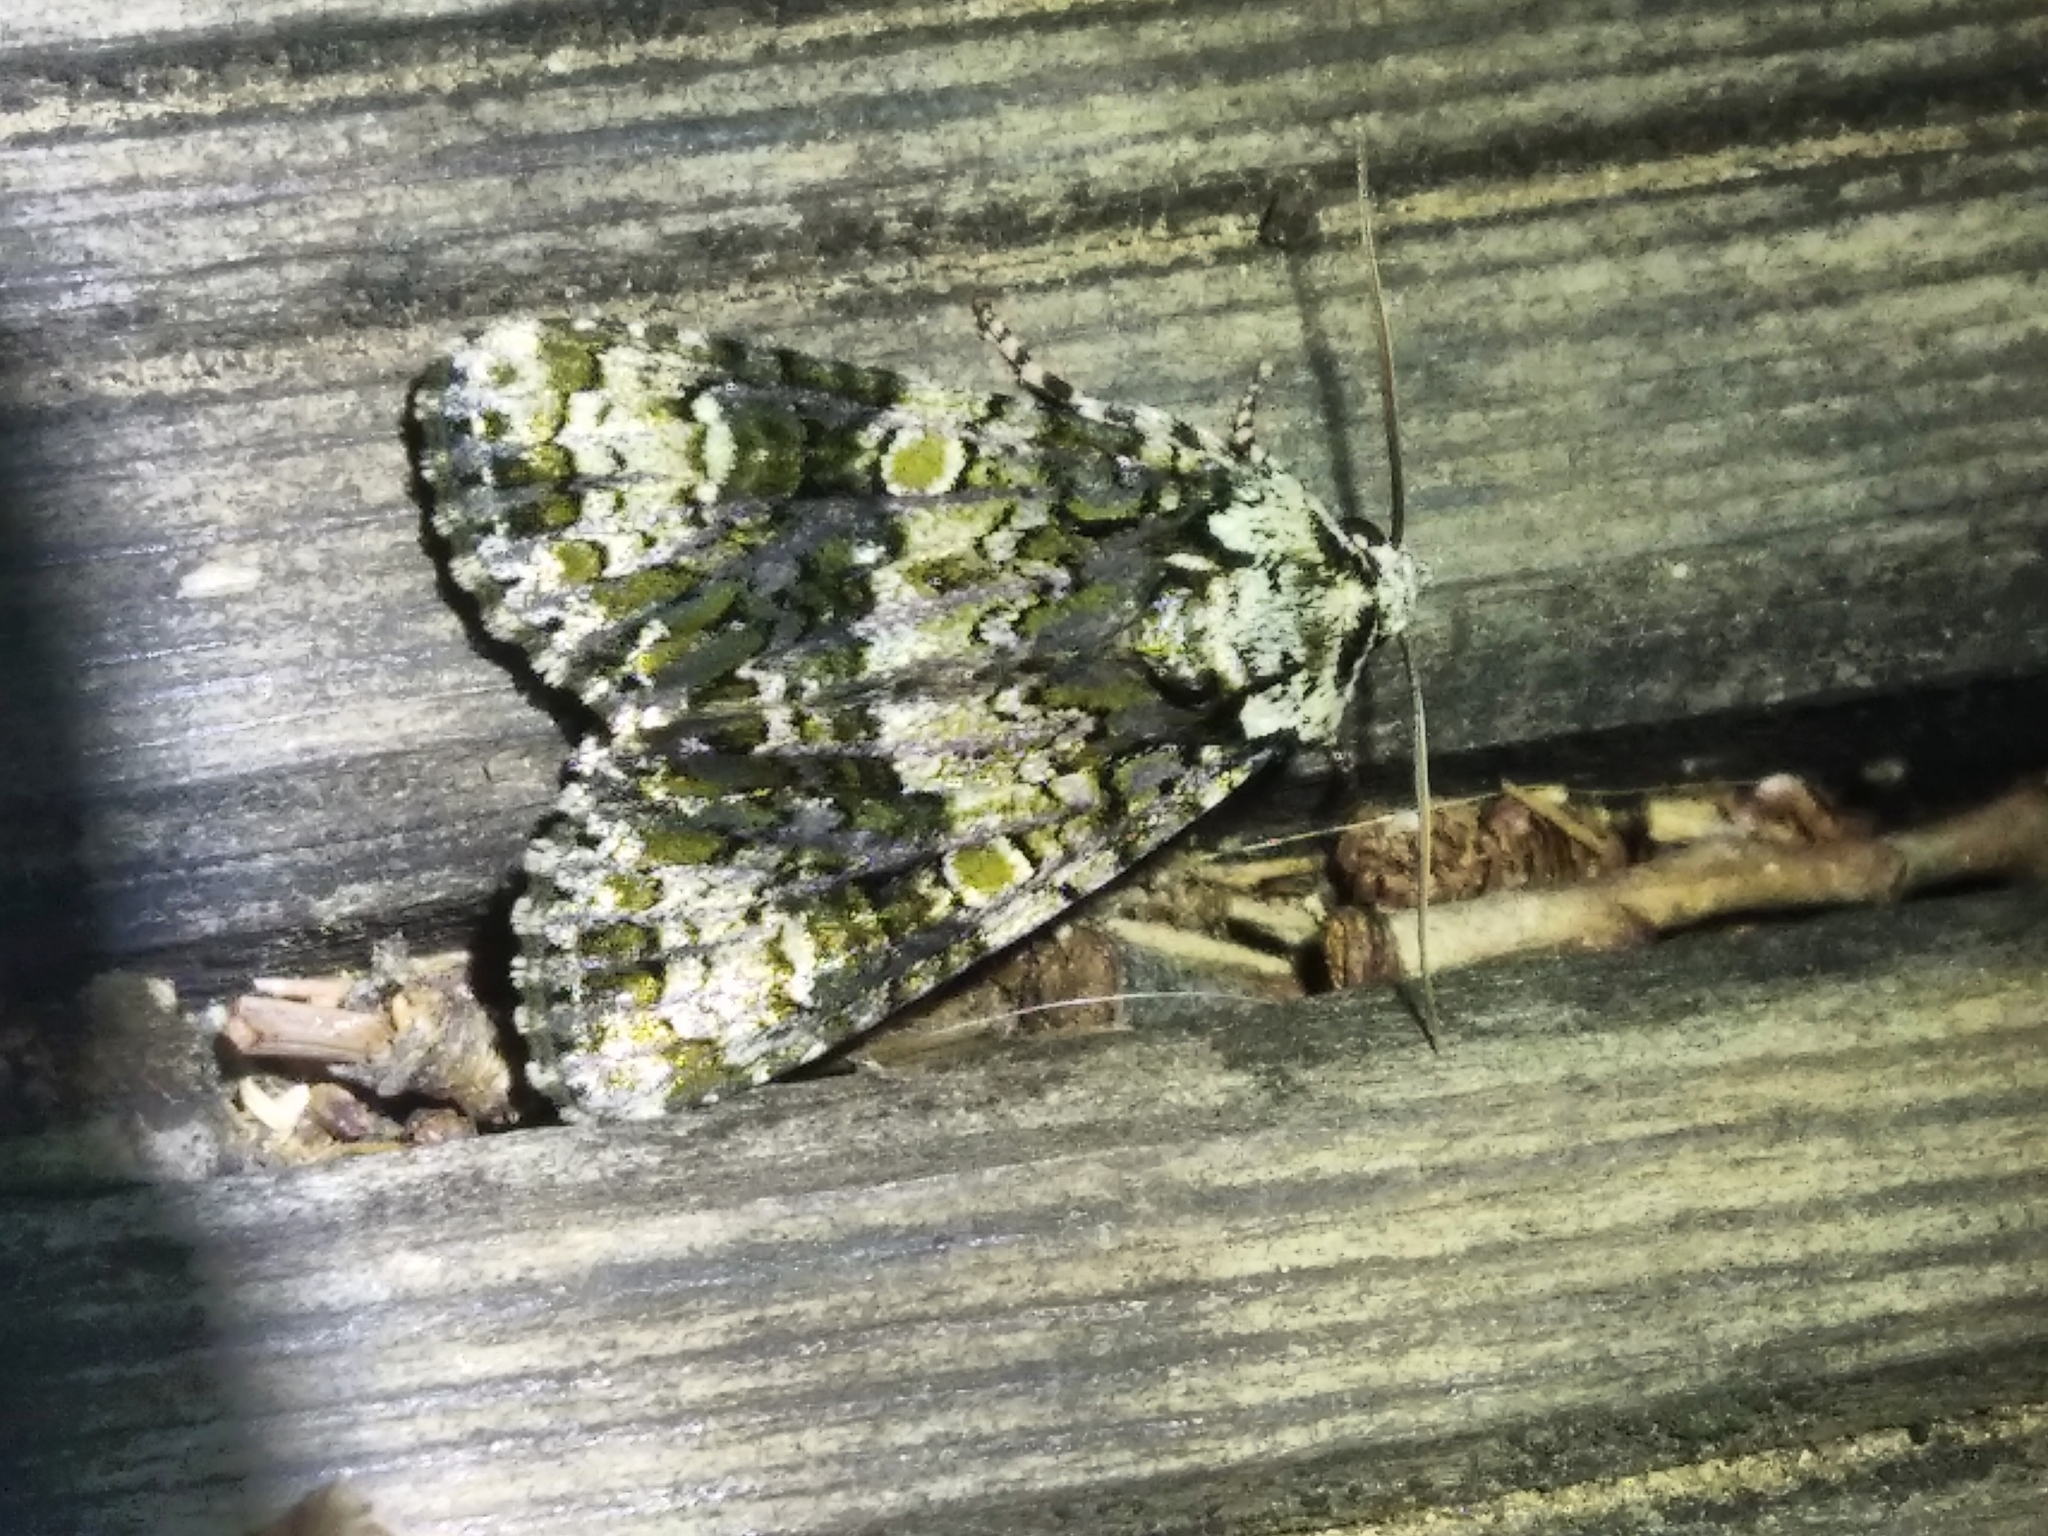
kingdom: Animalia
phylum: Arthropoda
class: Insecta
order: Lepidoptera
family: Noctuidae
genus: Craniophora
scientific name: Craniophora ligustri
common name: Coronet
